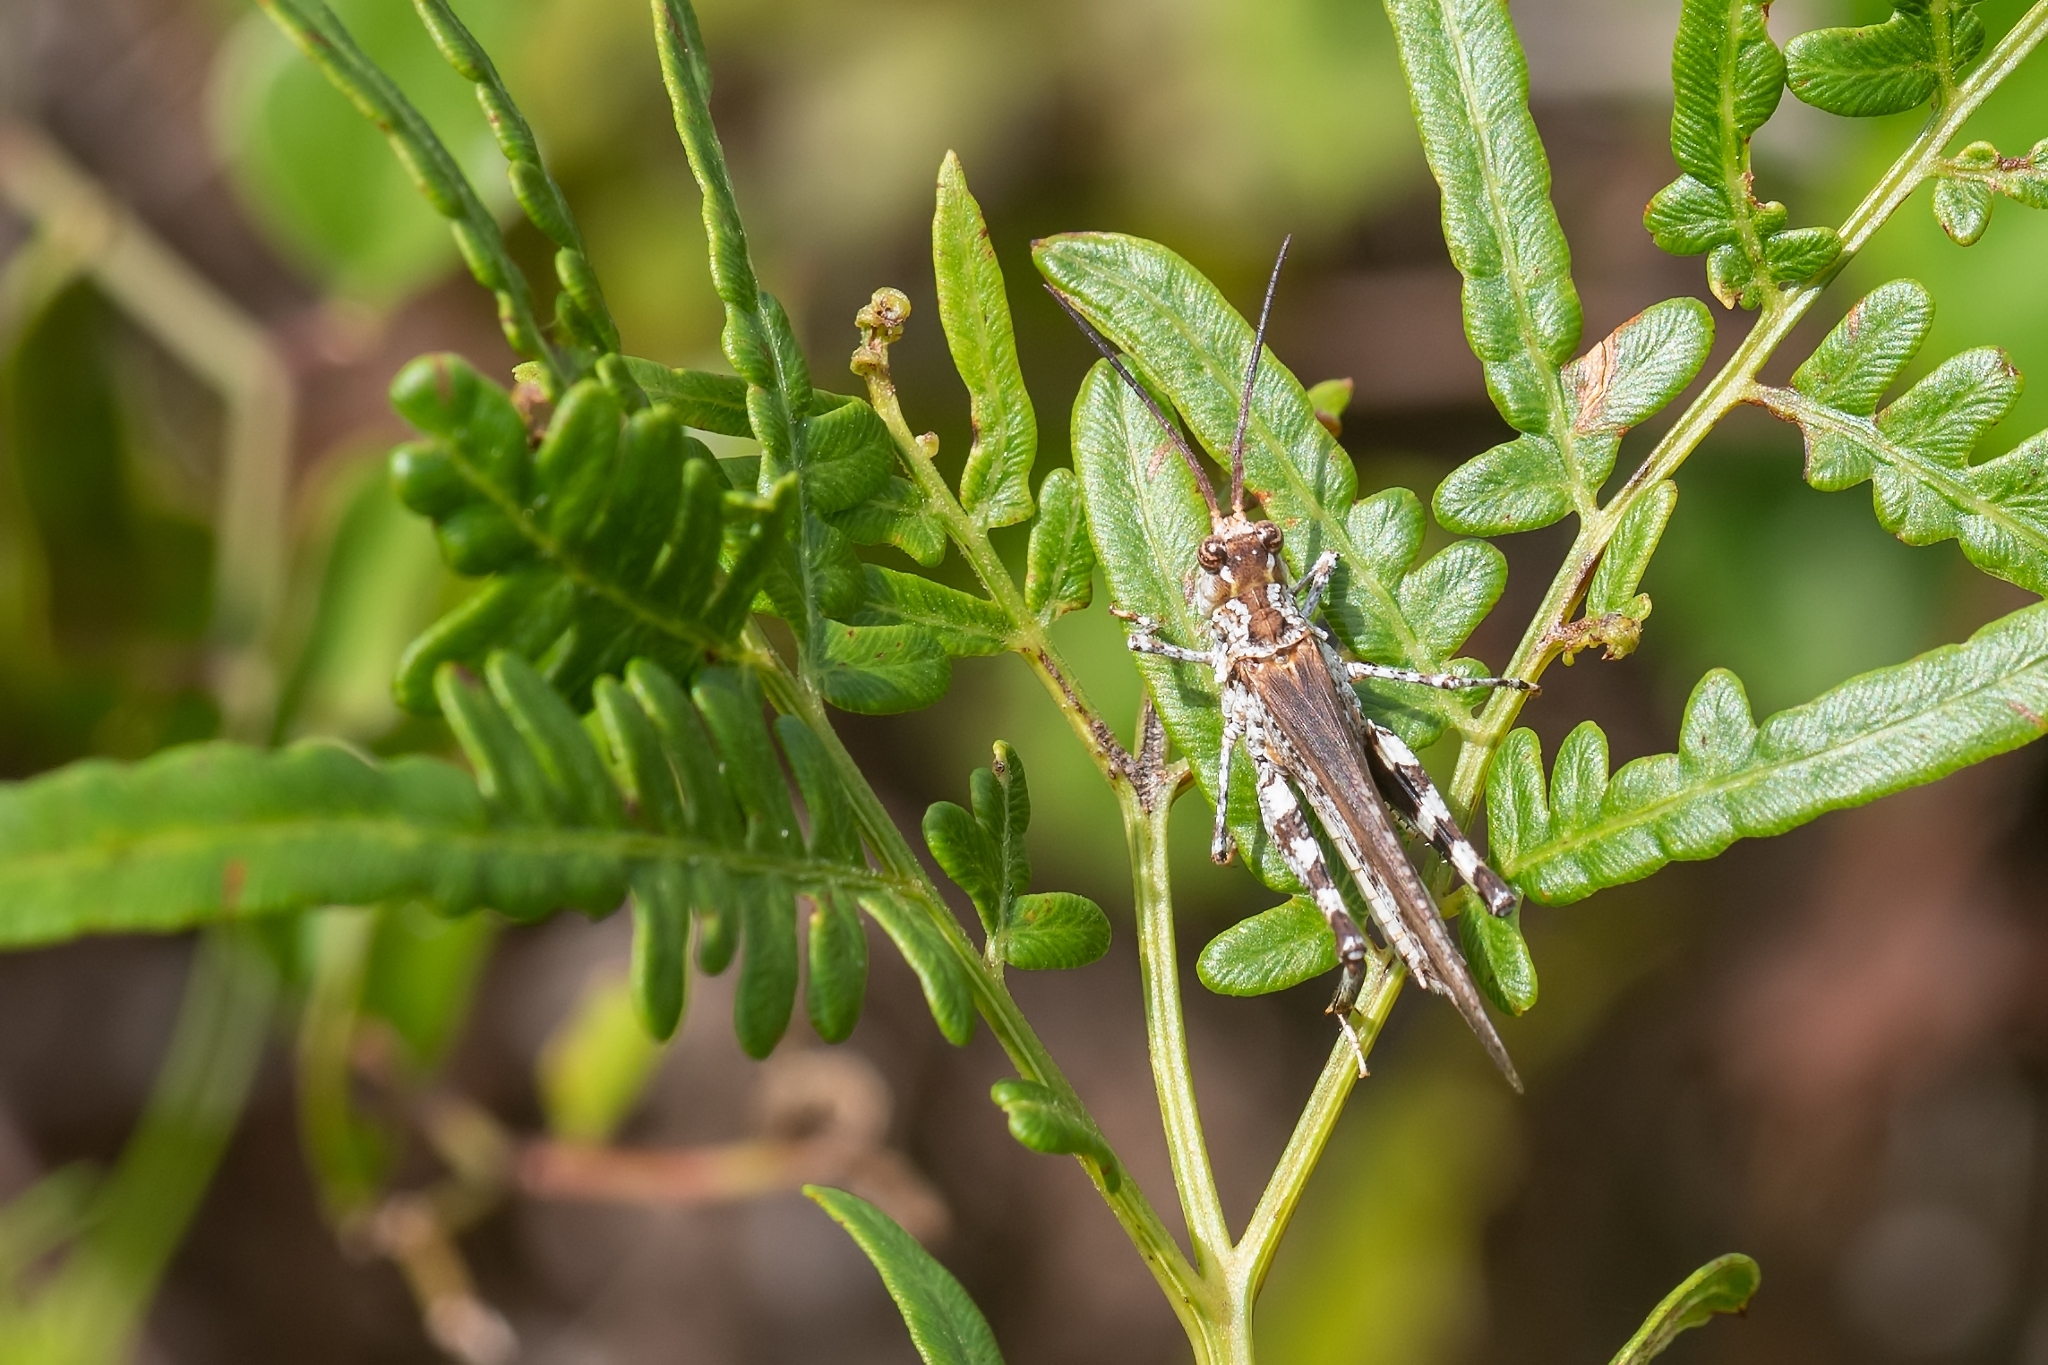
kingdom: Animalia
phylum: Arthropoda
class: Insecta
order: Orthoptera
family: Acrididae
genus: Psinidia
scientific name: Psinidia fenestralis
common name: Long-horned locust
